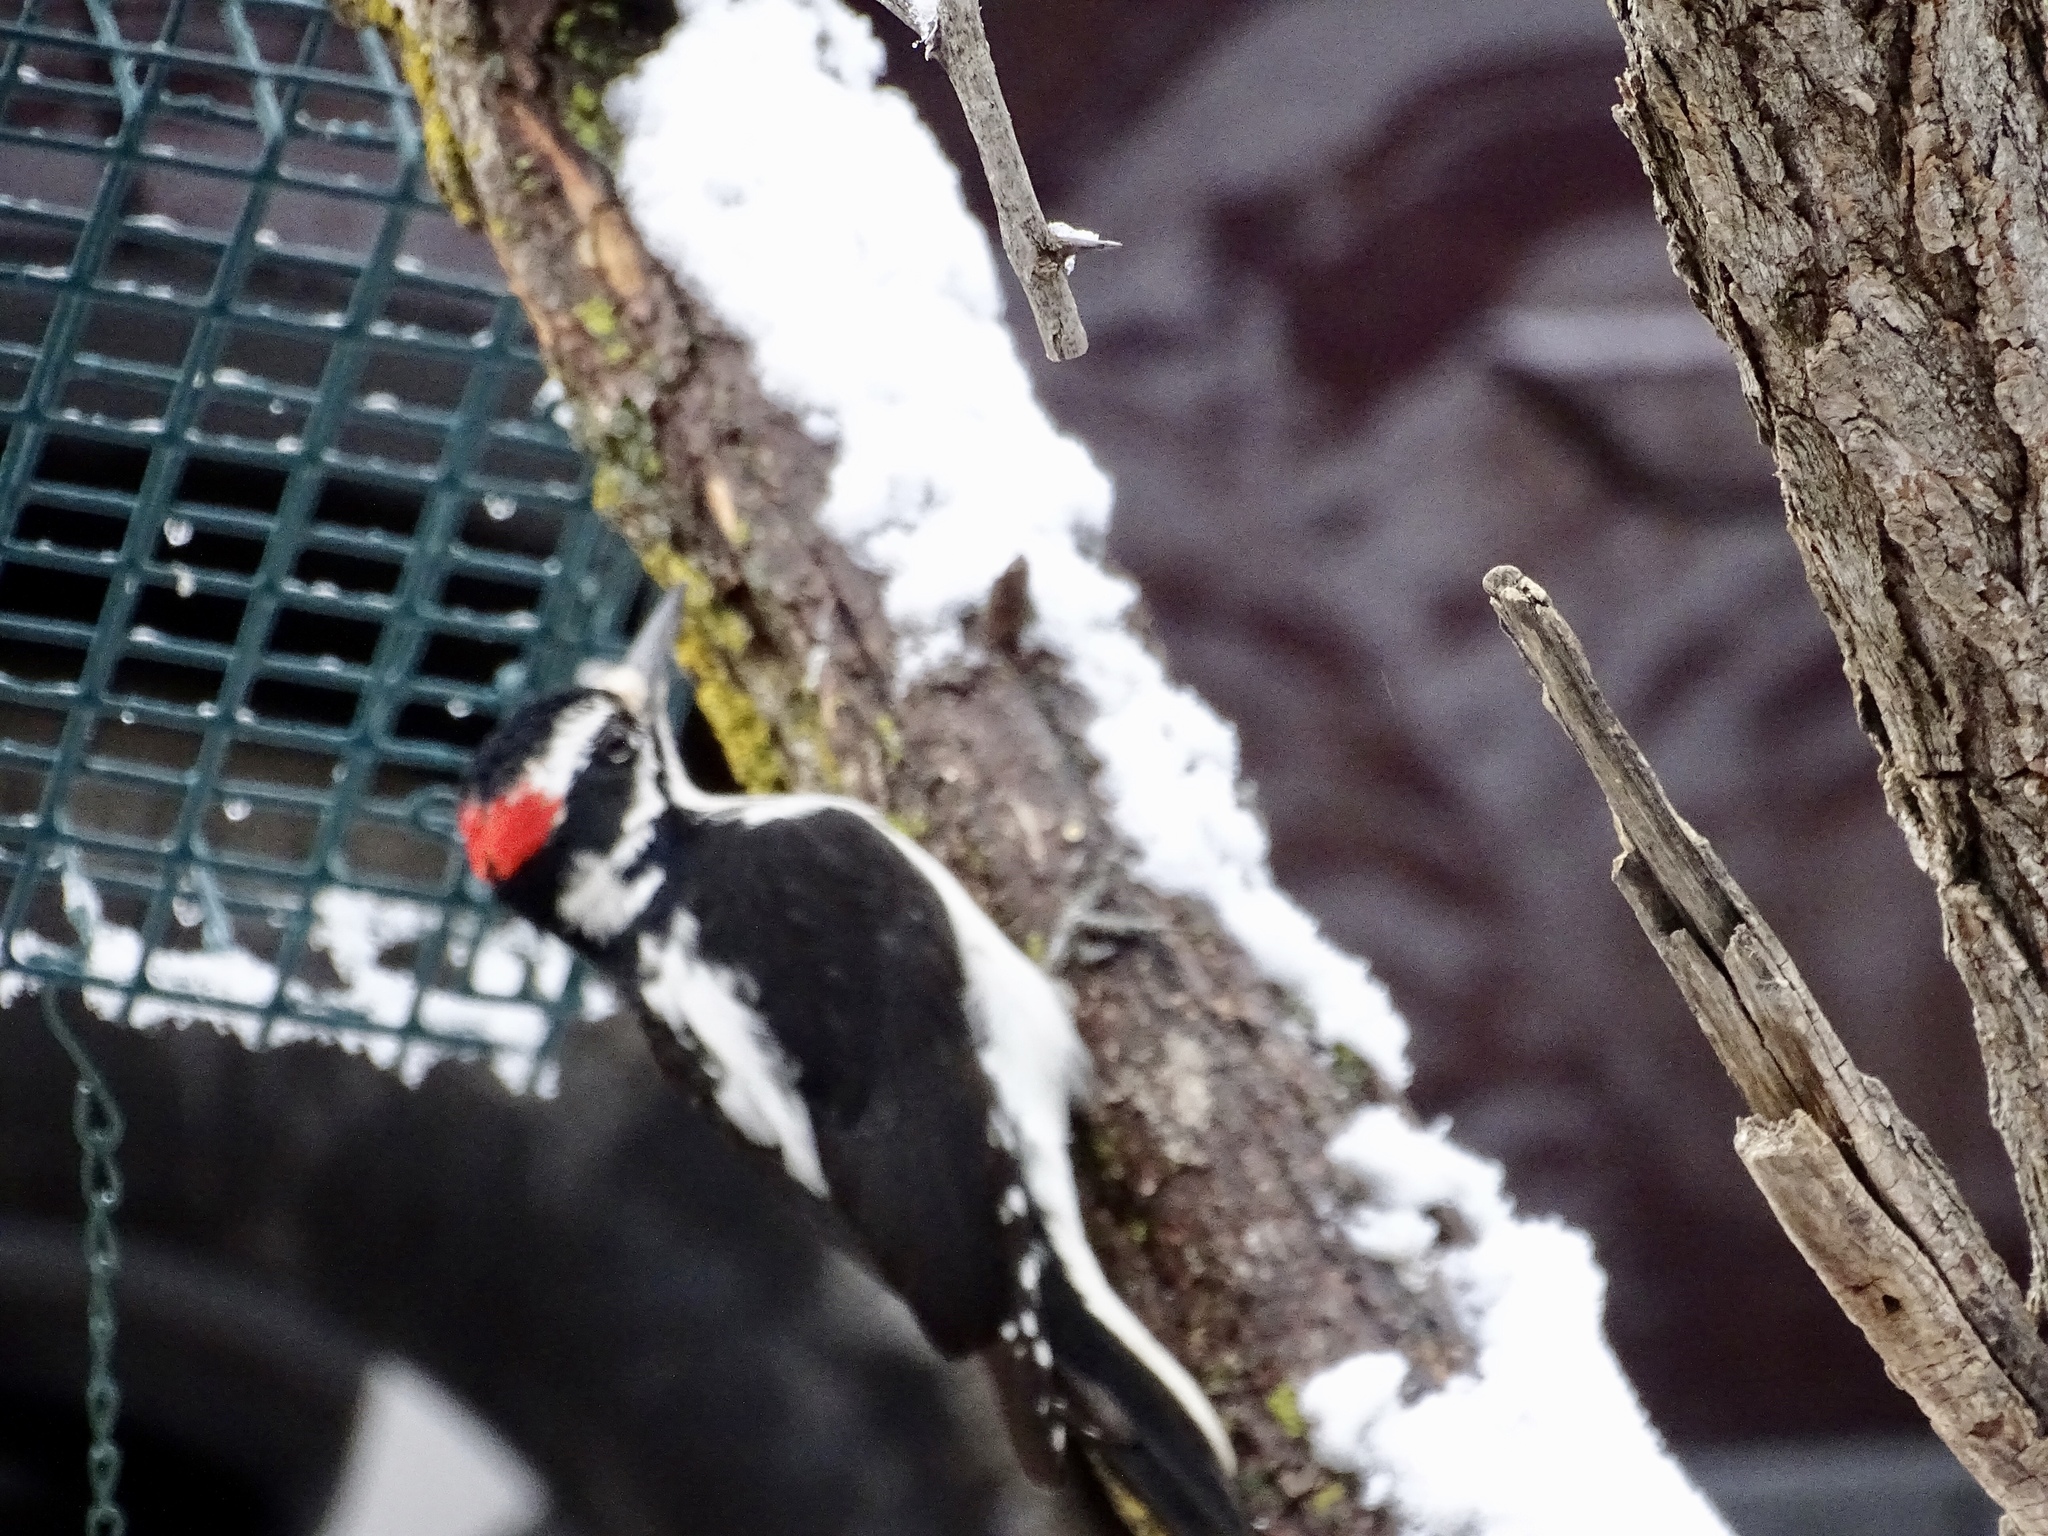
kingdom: Animalia
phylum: Chordata
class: Aves
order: Piciformes
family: Picidae
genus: Leuconotopicus
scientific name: Leuconotopicus villosus
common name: Hairy woodpecker
